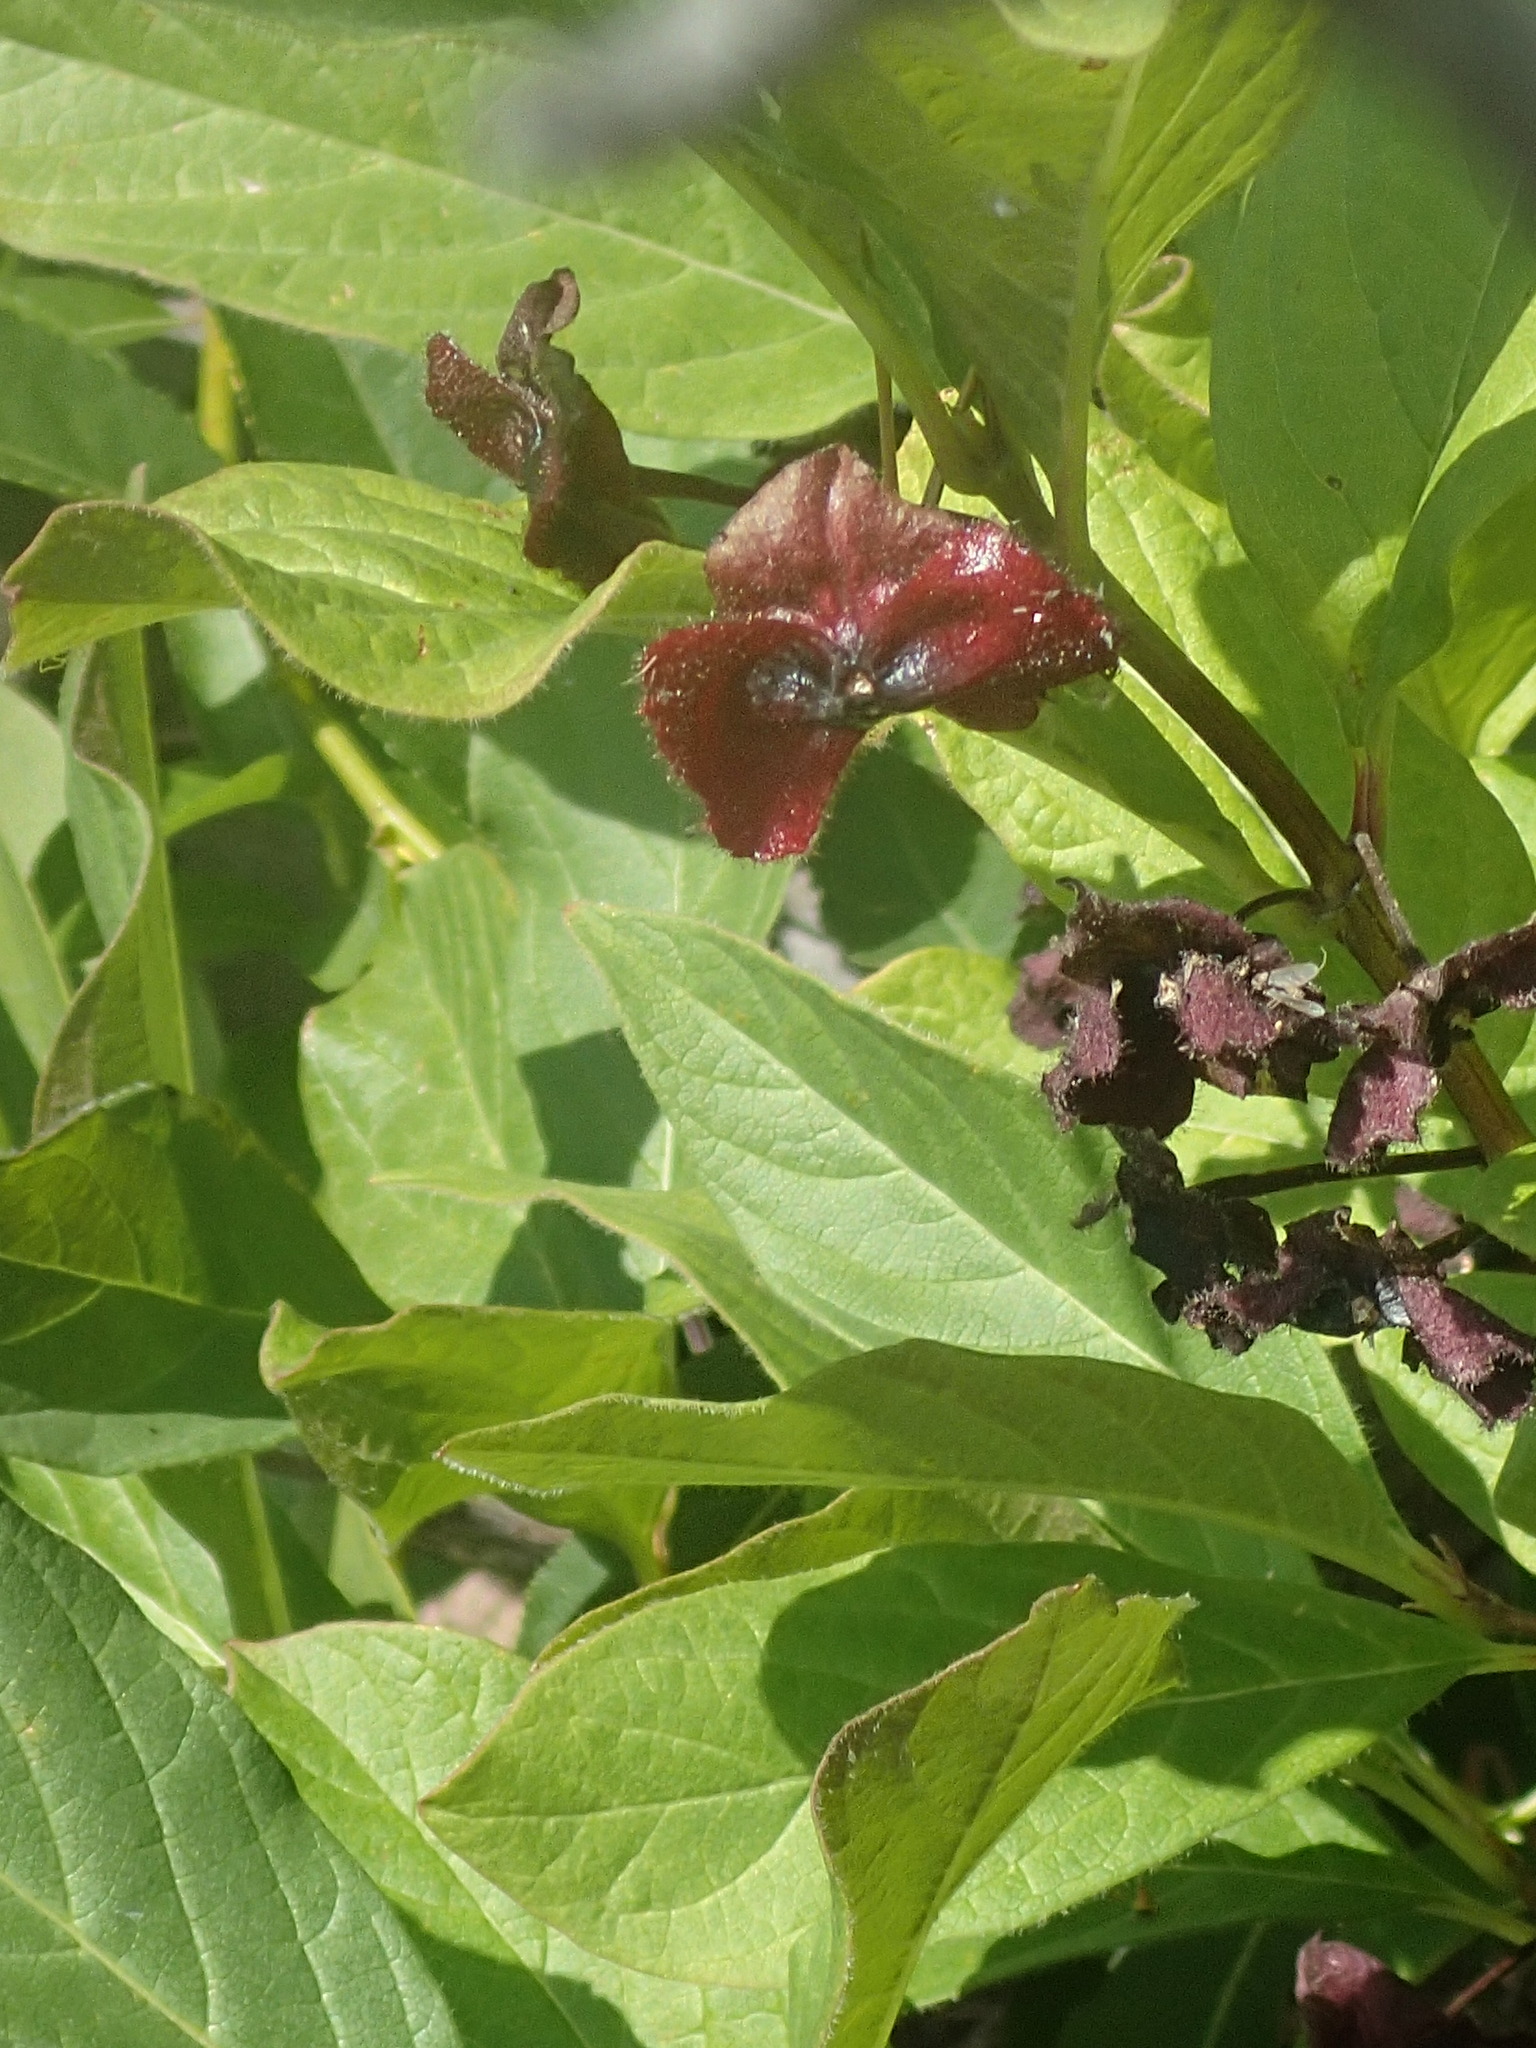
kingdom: Plantae
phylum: Tracheophyta
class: Magnoliopsida
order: Dipsacales
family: Caprifoliaceae
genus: Lonicera
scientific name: Lonicera involucrata
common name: Californian honeysuckle
